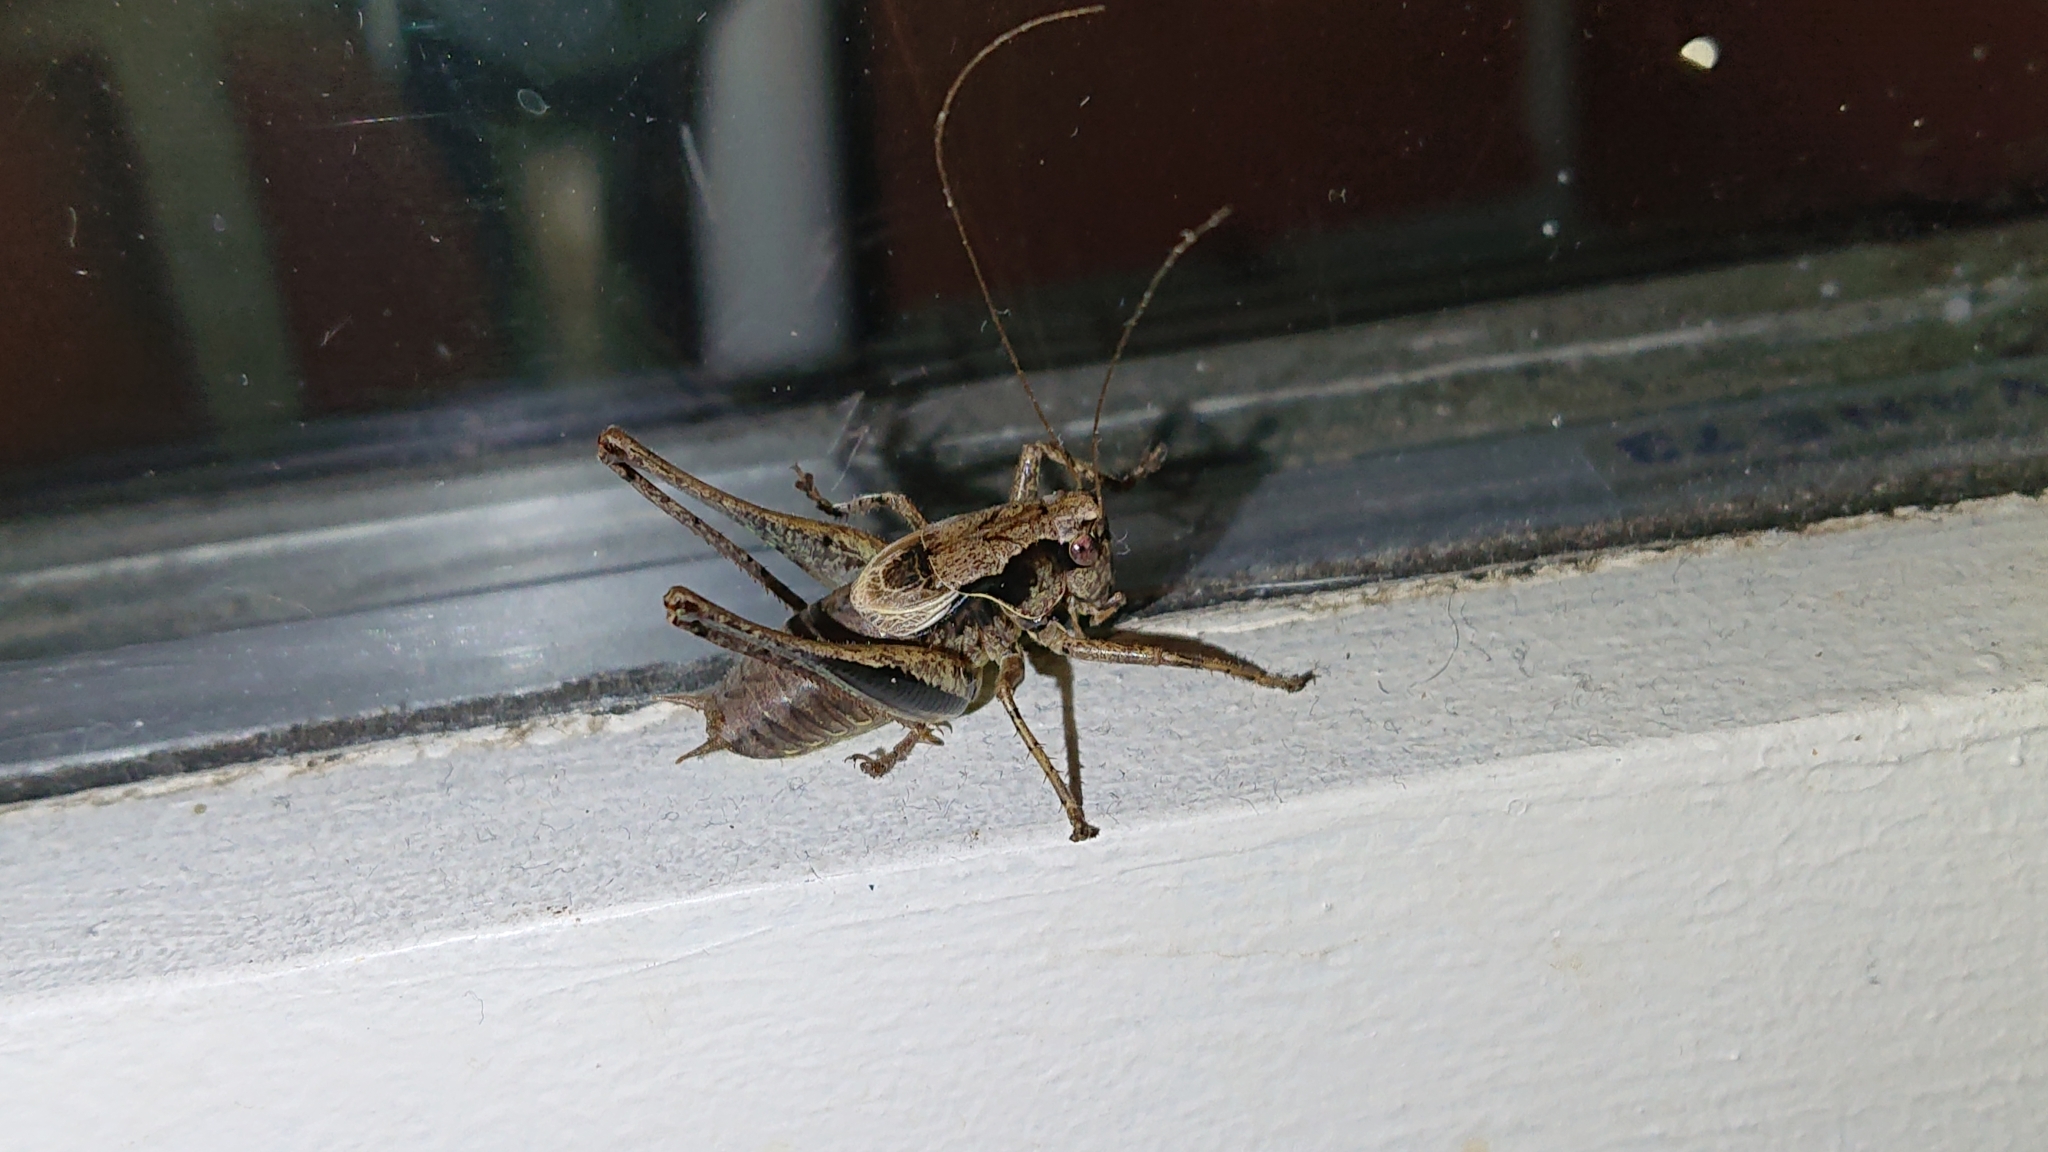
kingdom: Animalia
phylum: Arthropoda
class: Insecta
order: Orthoptera
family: Tettigoniidae
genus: Pholidoptera
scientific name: Pholidoptera griseoaptera
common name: Dark bush-cricket
